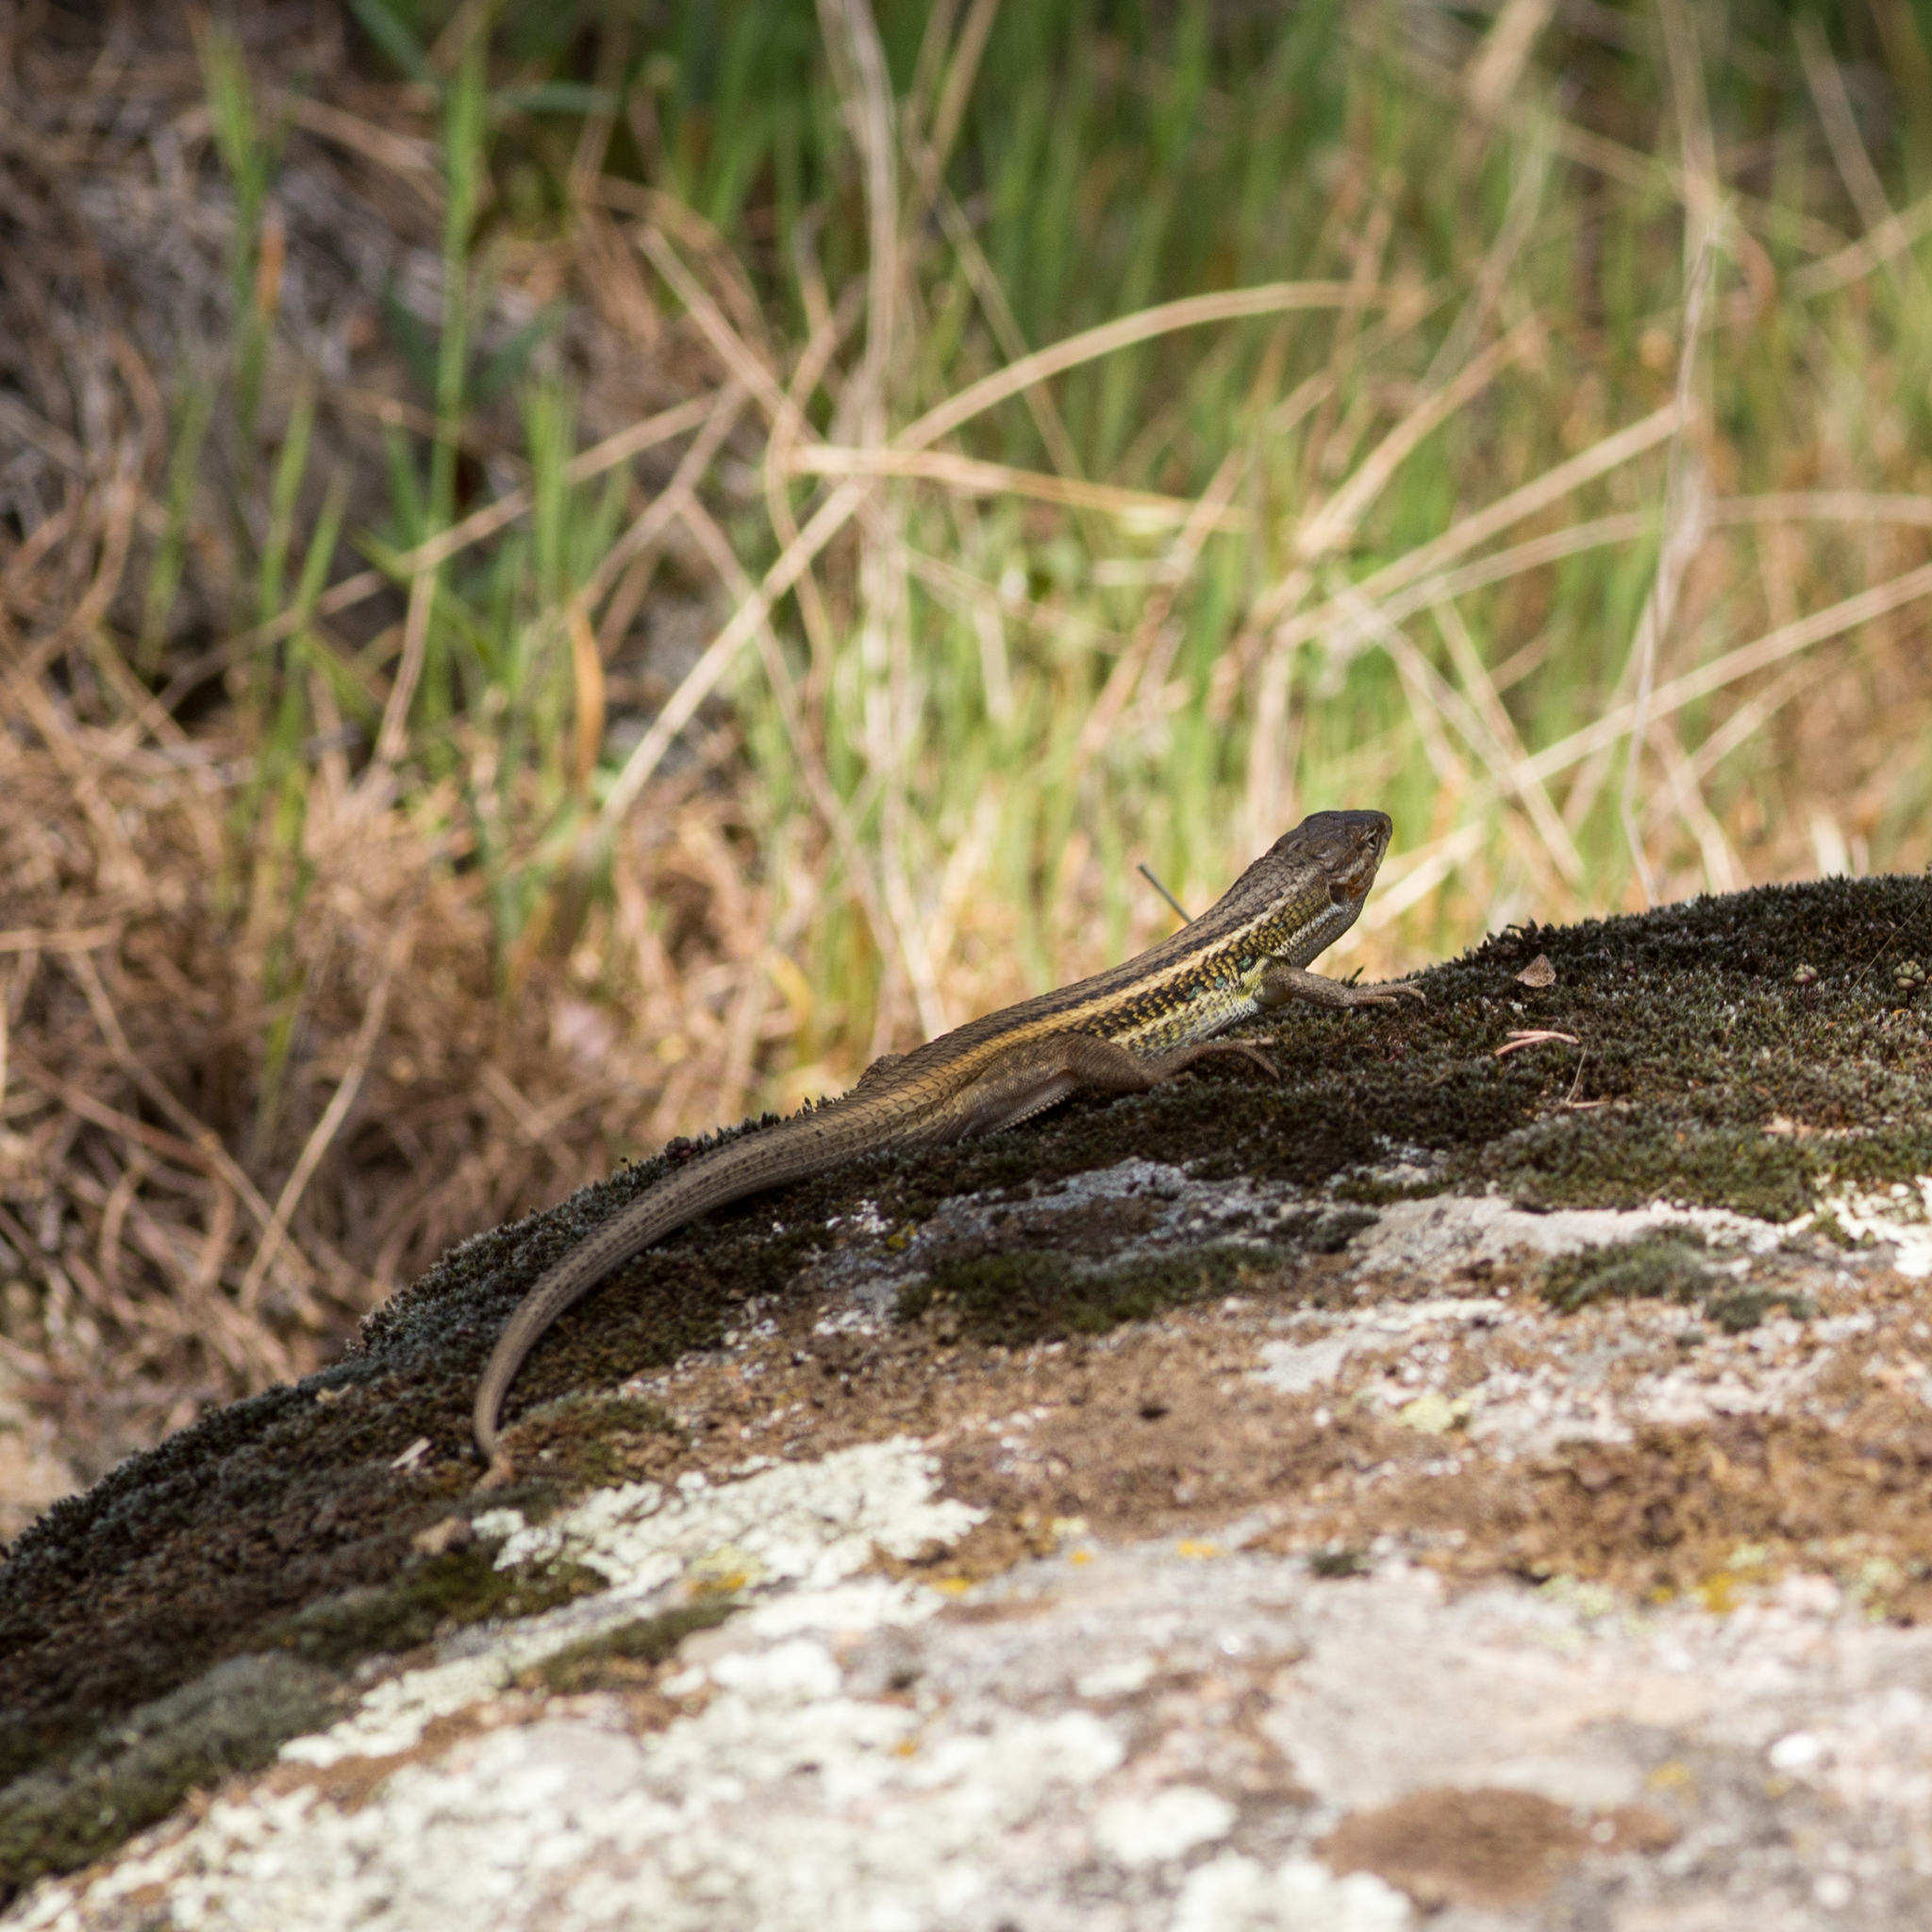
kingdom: Animalia
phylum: Chordata
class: Squamata
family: Lacertidae
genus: Psammodromus
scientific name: Psammodromus algirus
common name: Algerian psammodromus
